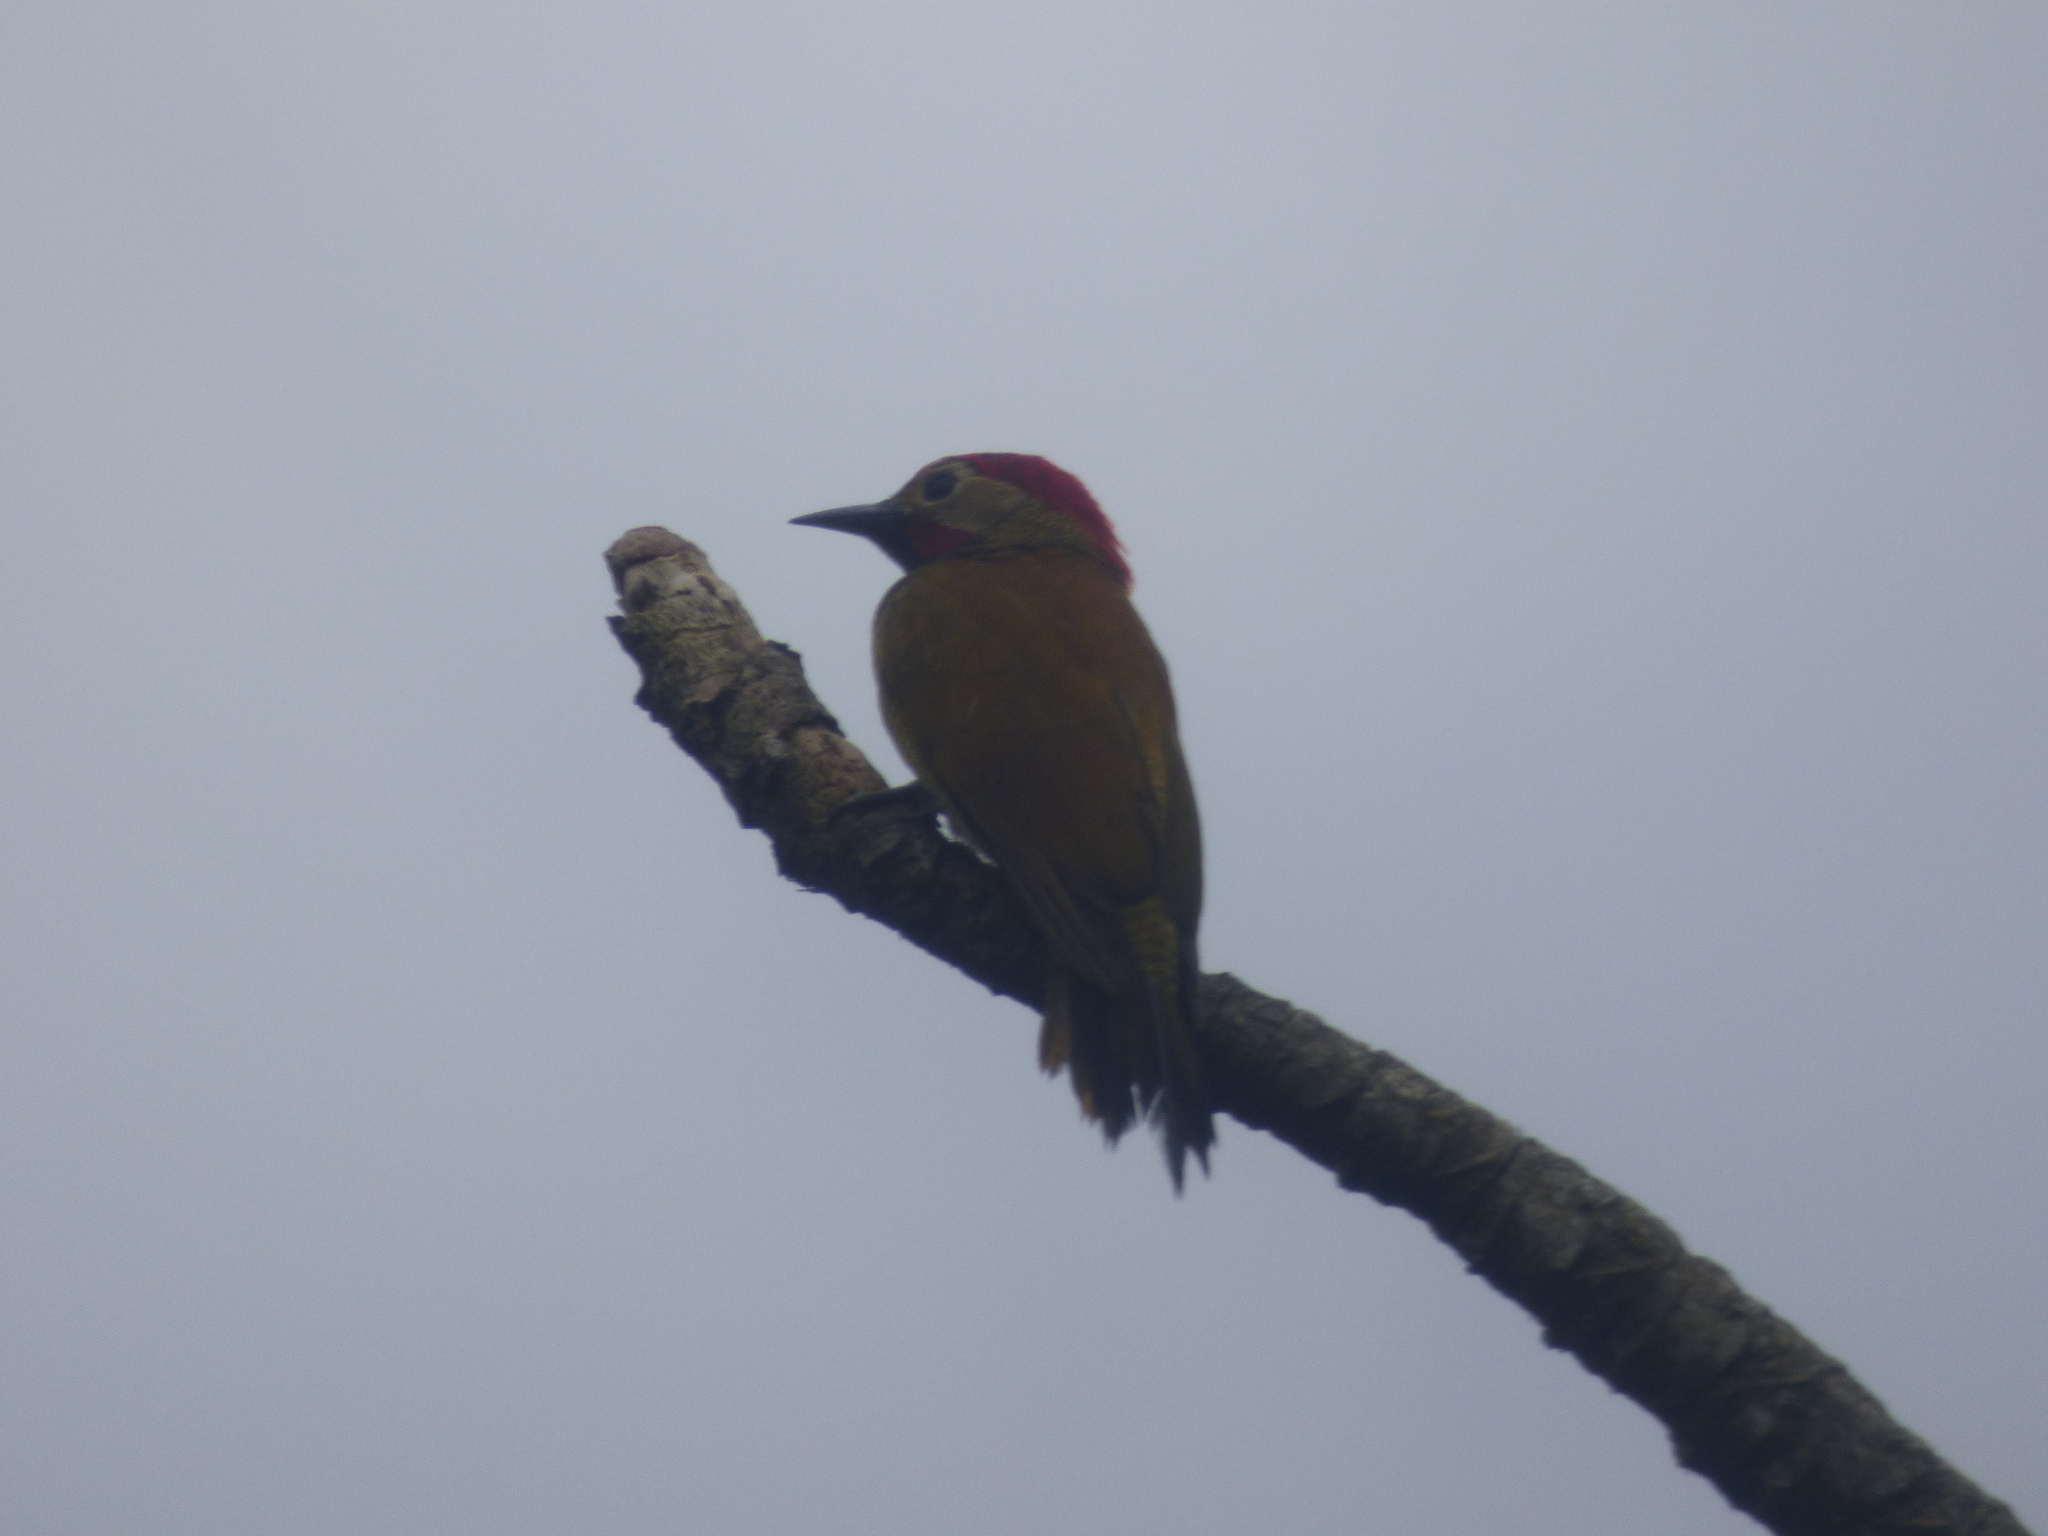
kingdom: Animalia
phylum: Chordata
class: Aves
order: Piciformes
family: Picidae
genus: Colaptes
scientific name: Colaptes rubiginosus
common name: Golden-olive woodpecker
